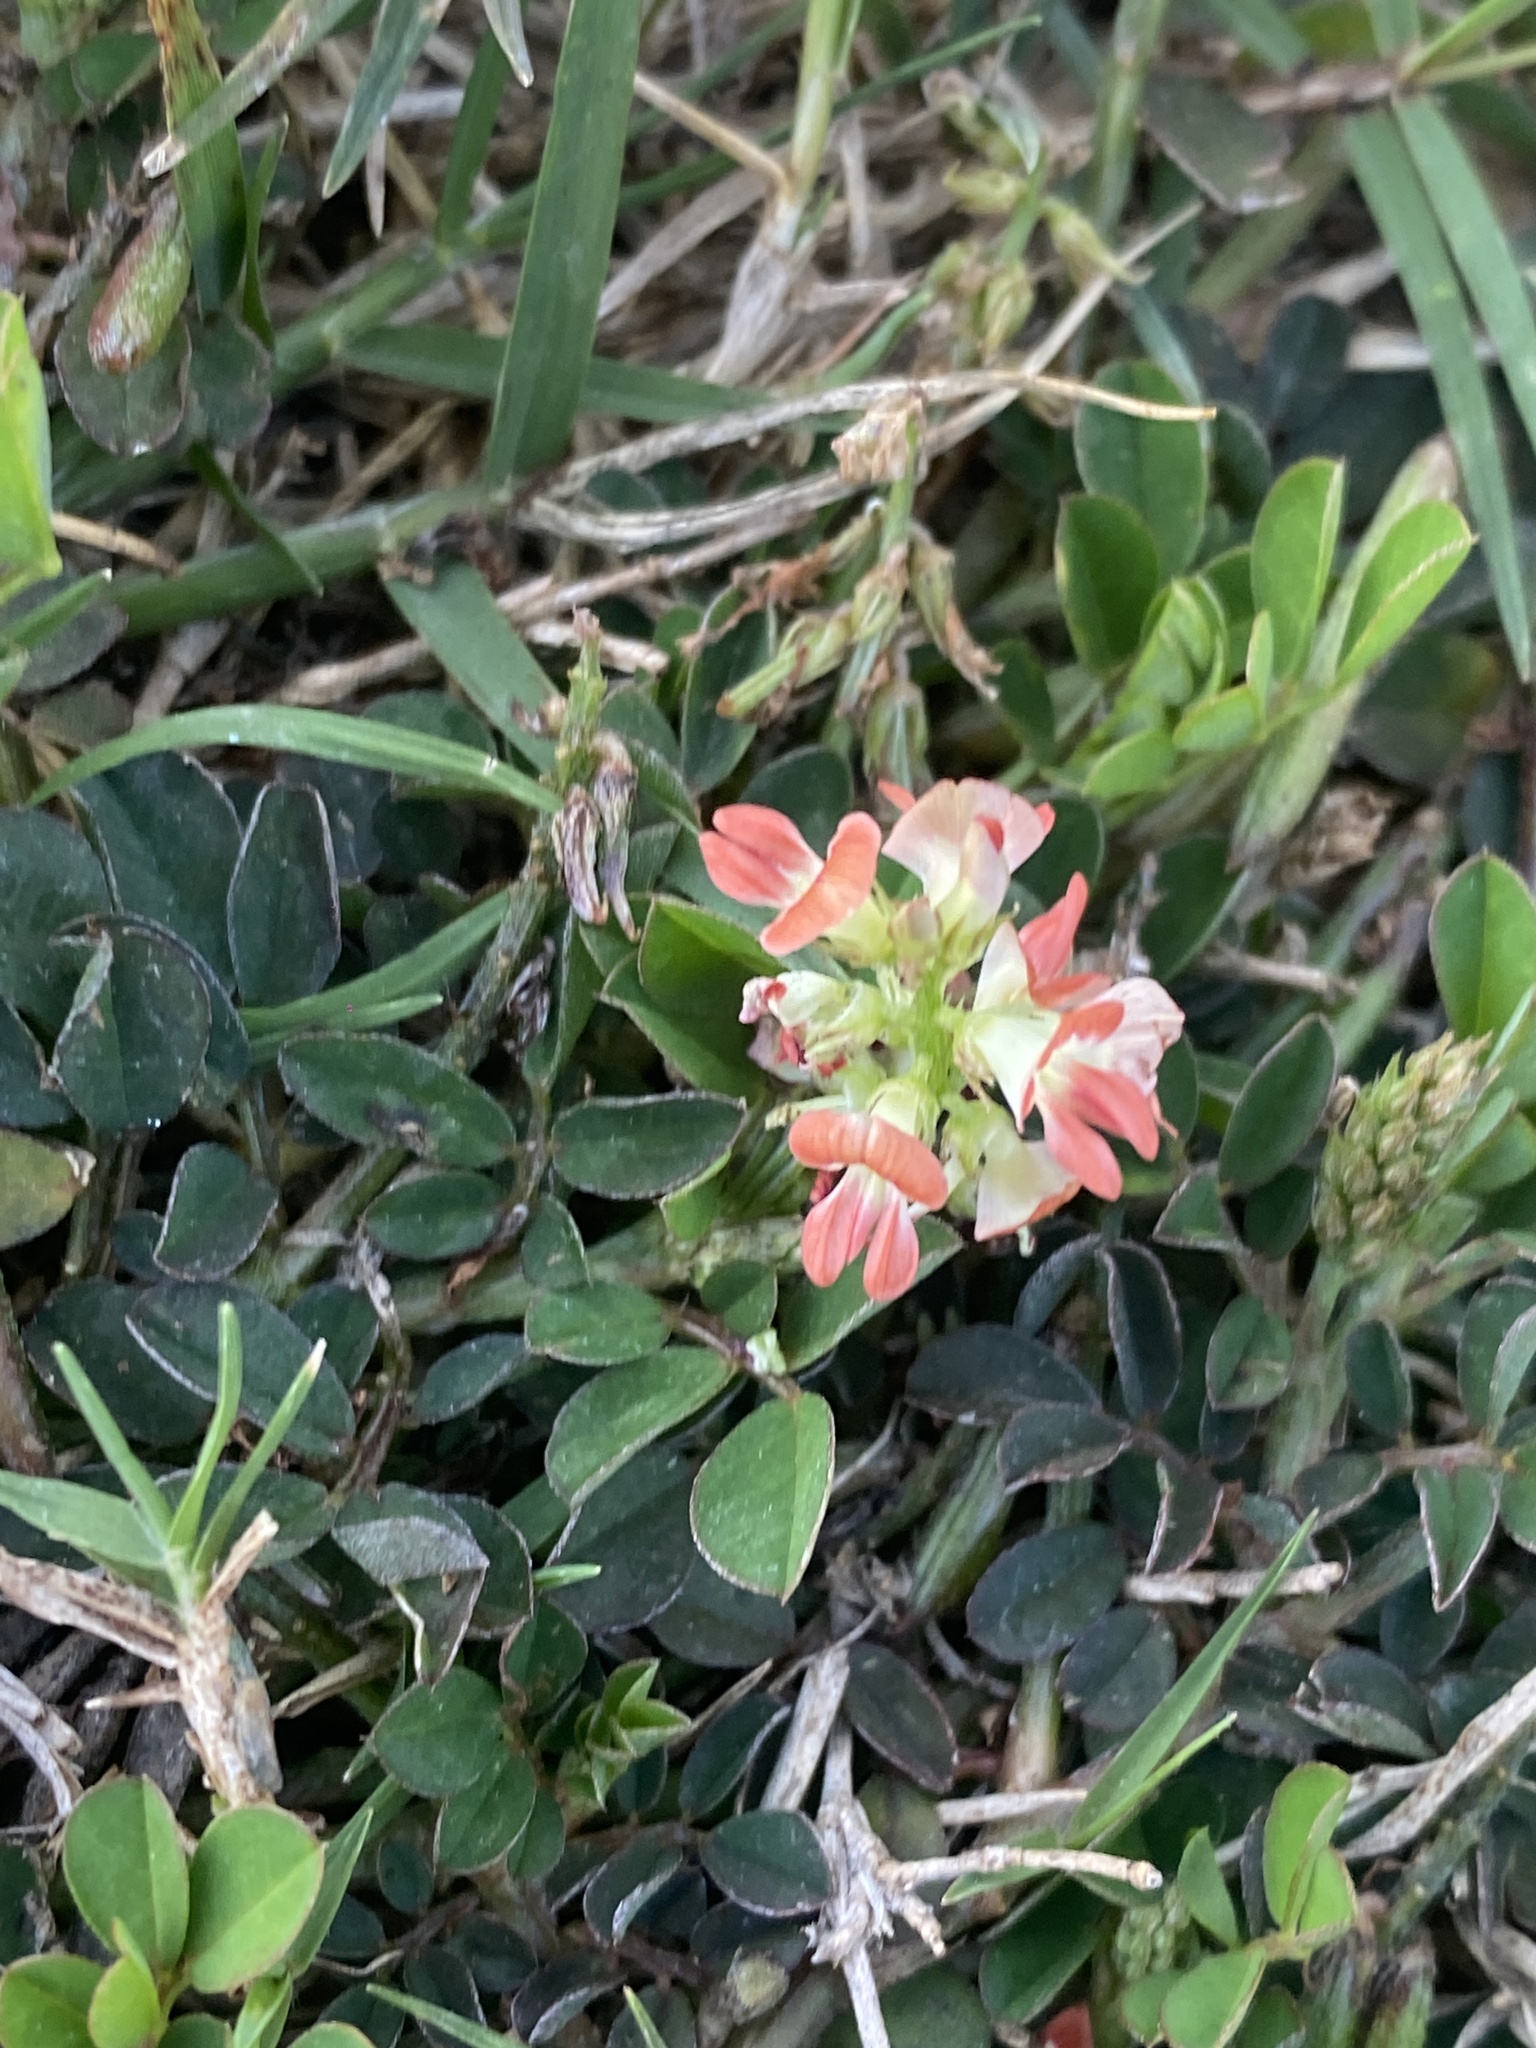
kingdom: Plantae
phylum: Tracheophyta
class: Magnoliopsida
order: Fabales
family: Fabaceae
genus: Indigofera
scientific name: Indigofera spicata
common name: Creeping indigo
